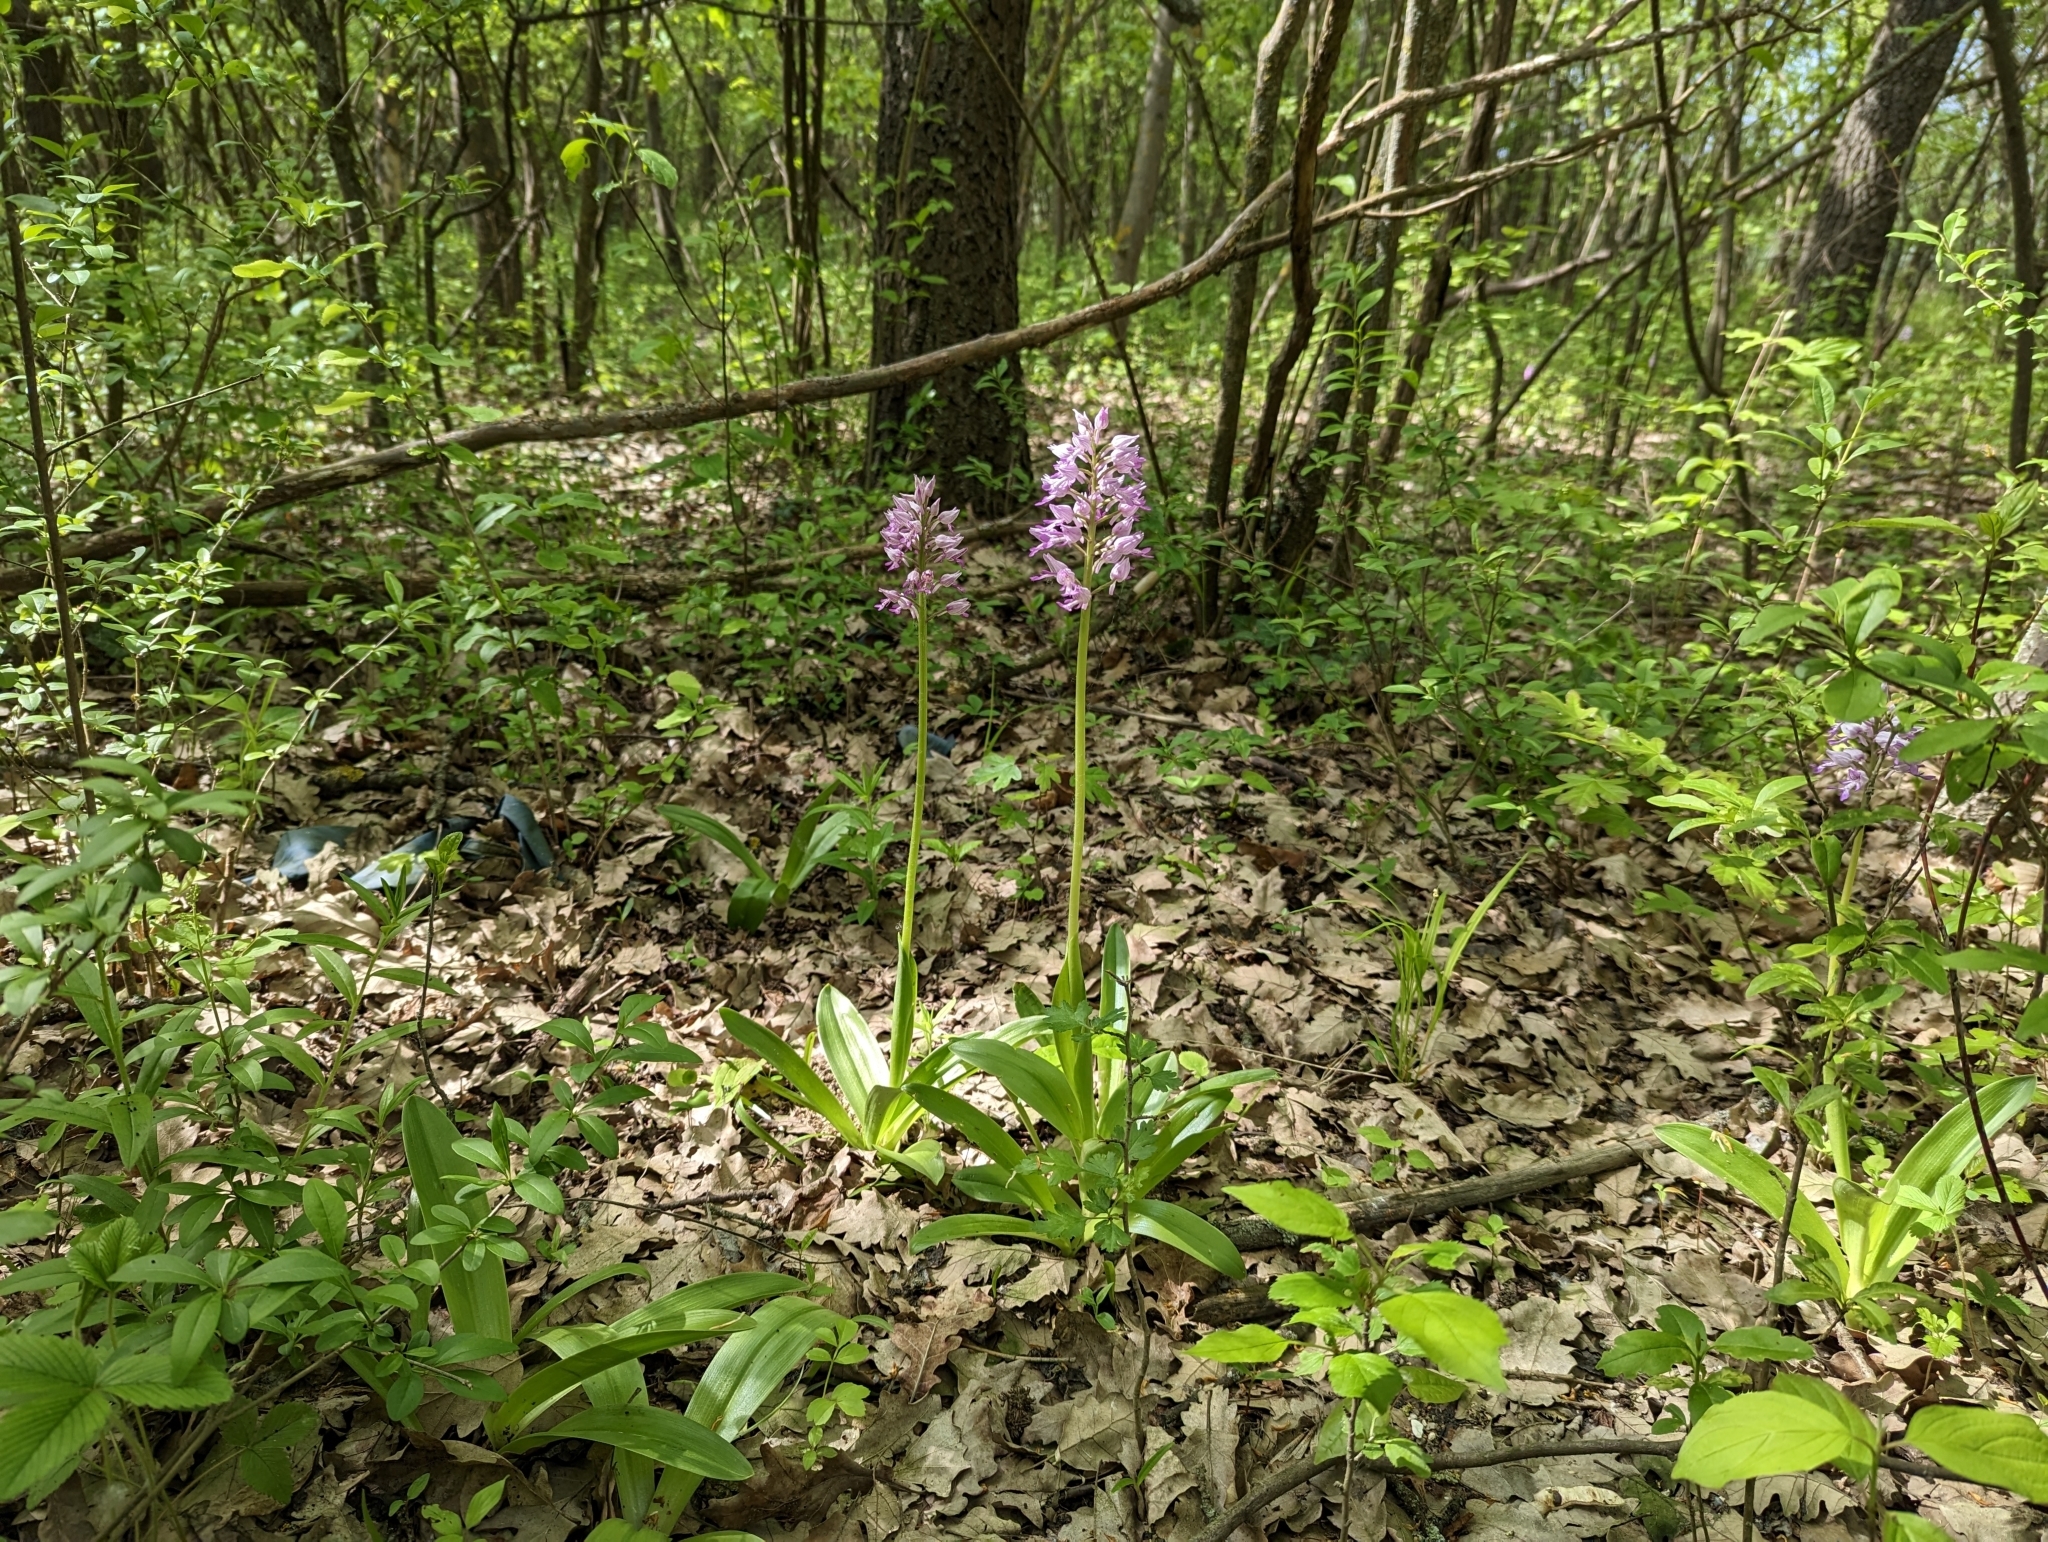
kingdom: Plantae
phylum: Tracheophyta
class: Liliopsida
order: Asparagales
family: Orchidaceae
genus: Orchis
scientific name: Orchis militaris
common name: Military orchid
